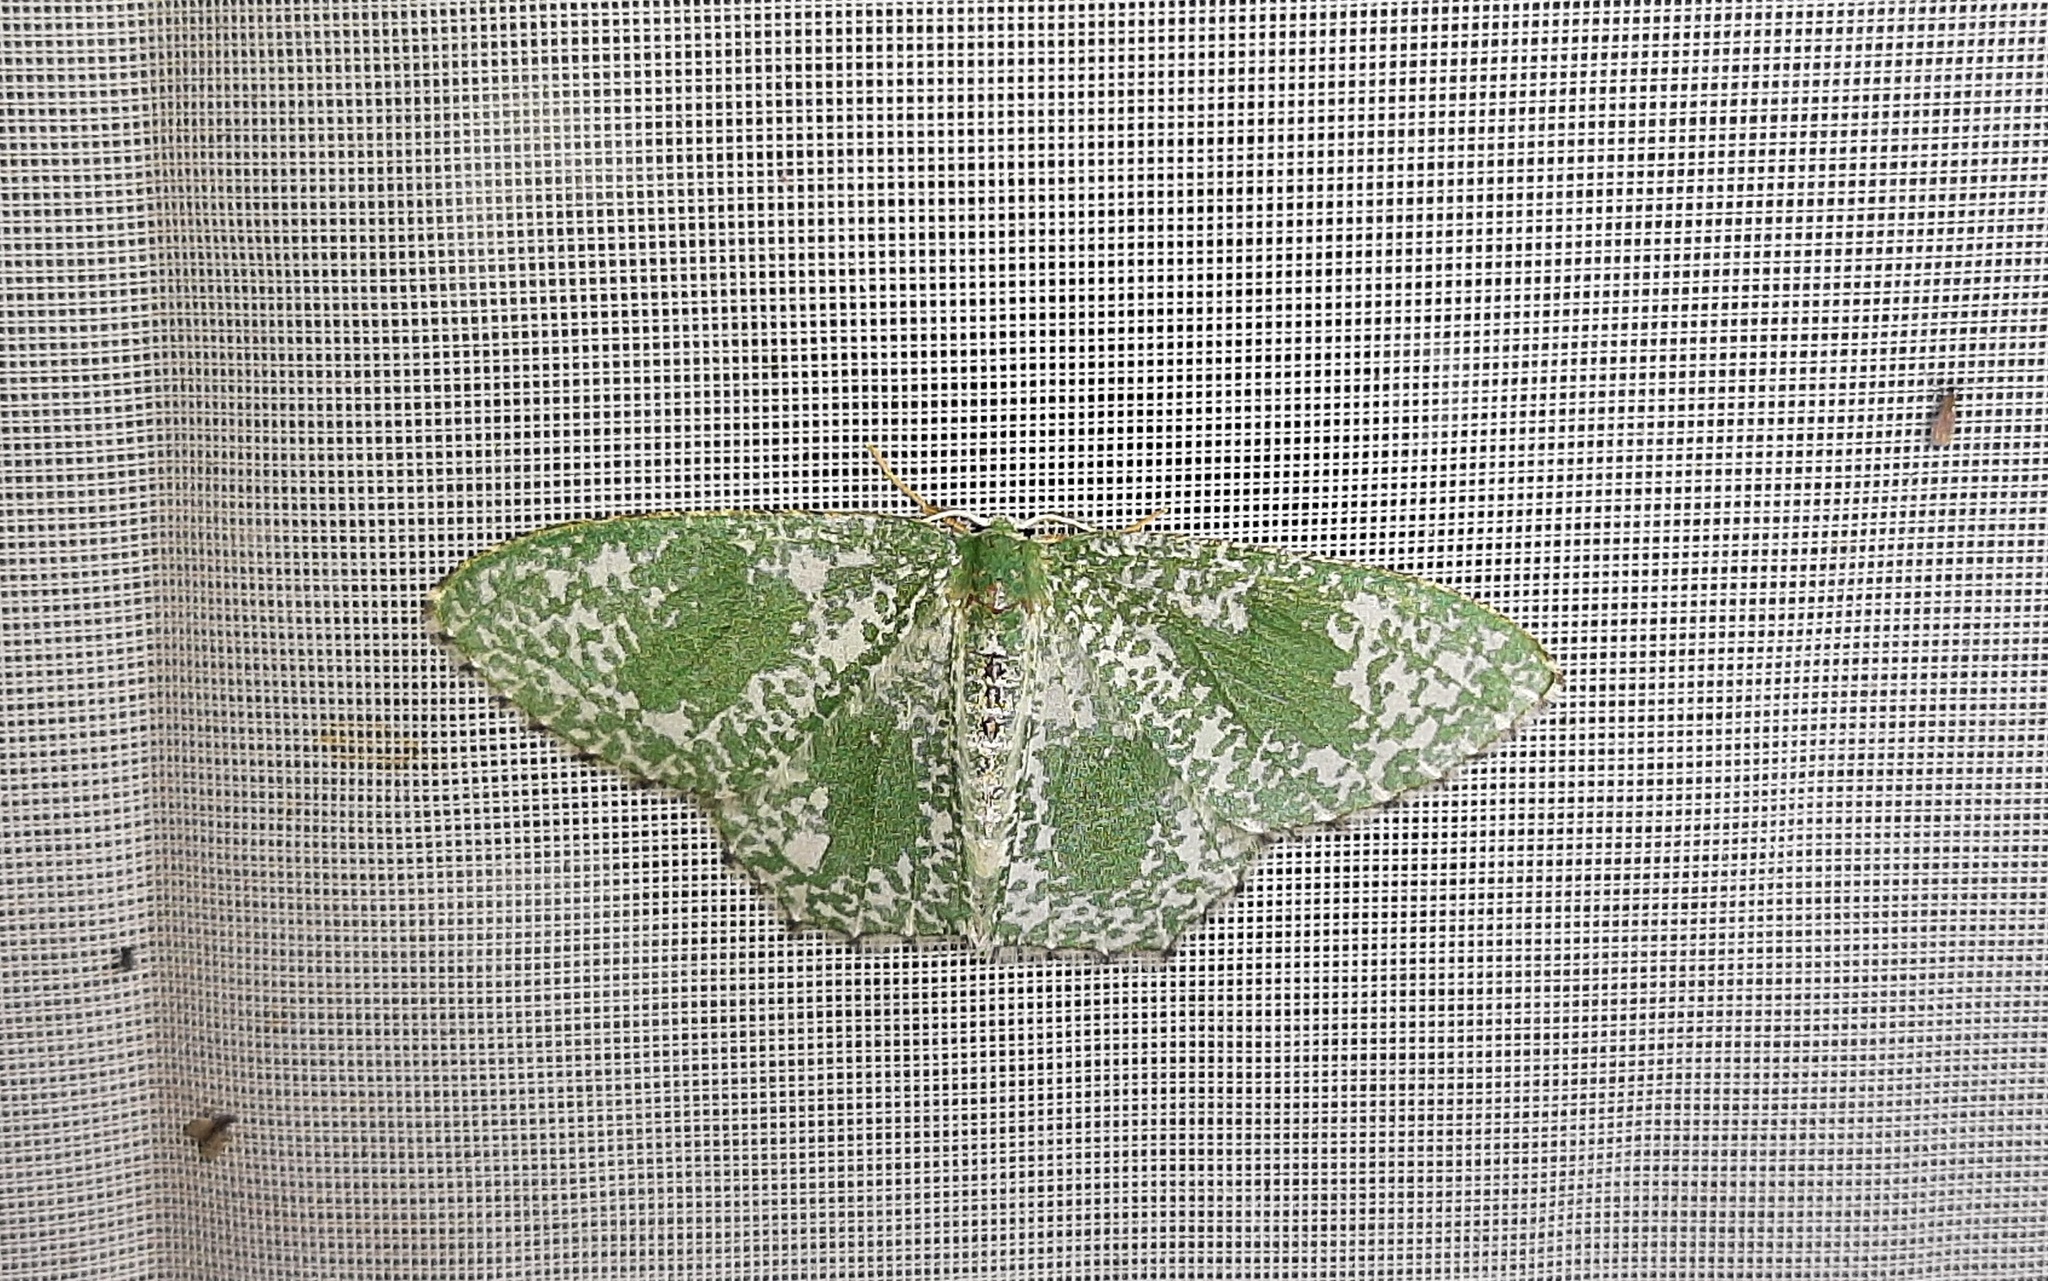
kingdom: Animalia
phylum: Arthropoda
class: Insecta
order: Lepidoptera
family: Geometridae
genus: Oospila
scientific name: Oospila stagonata
